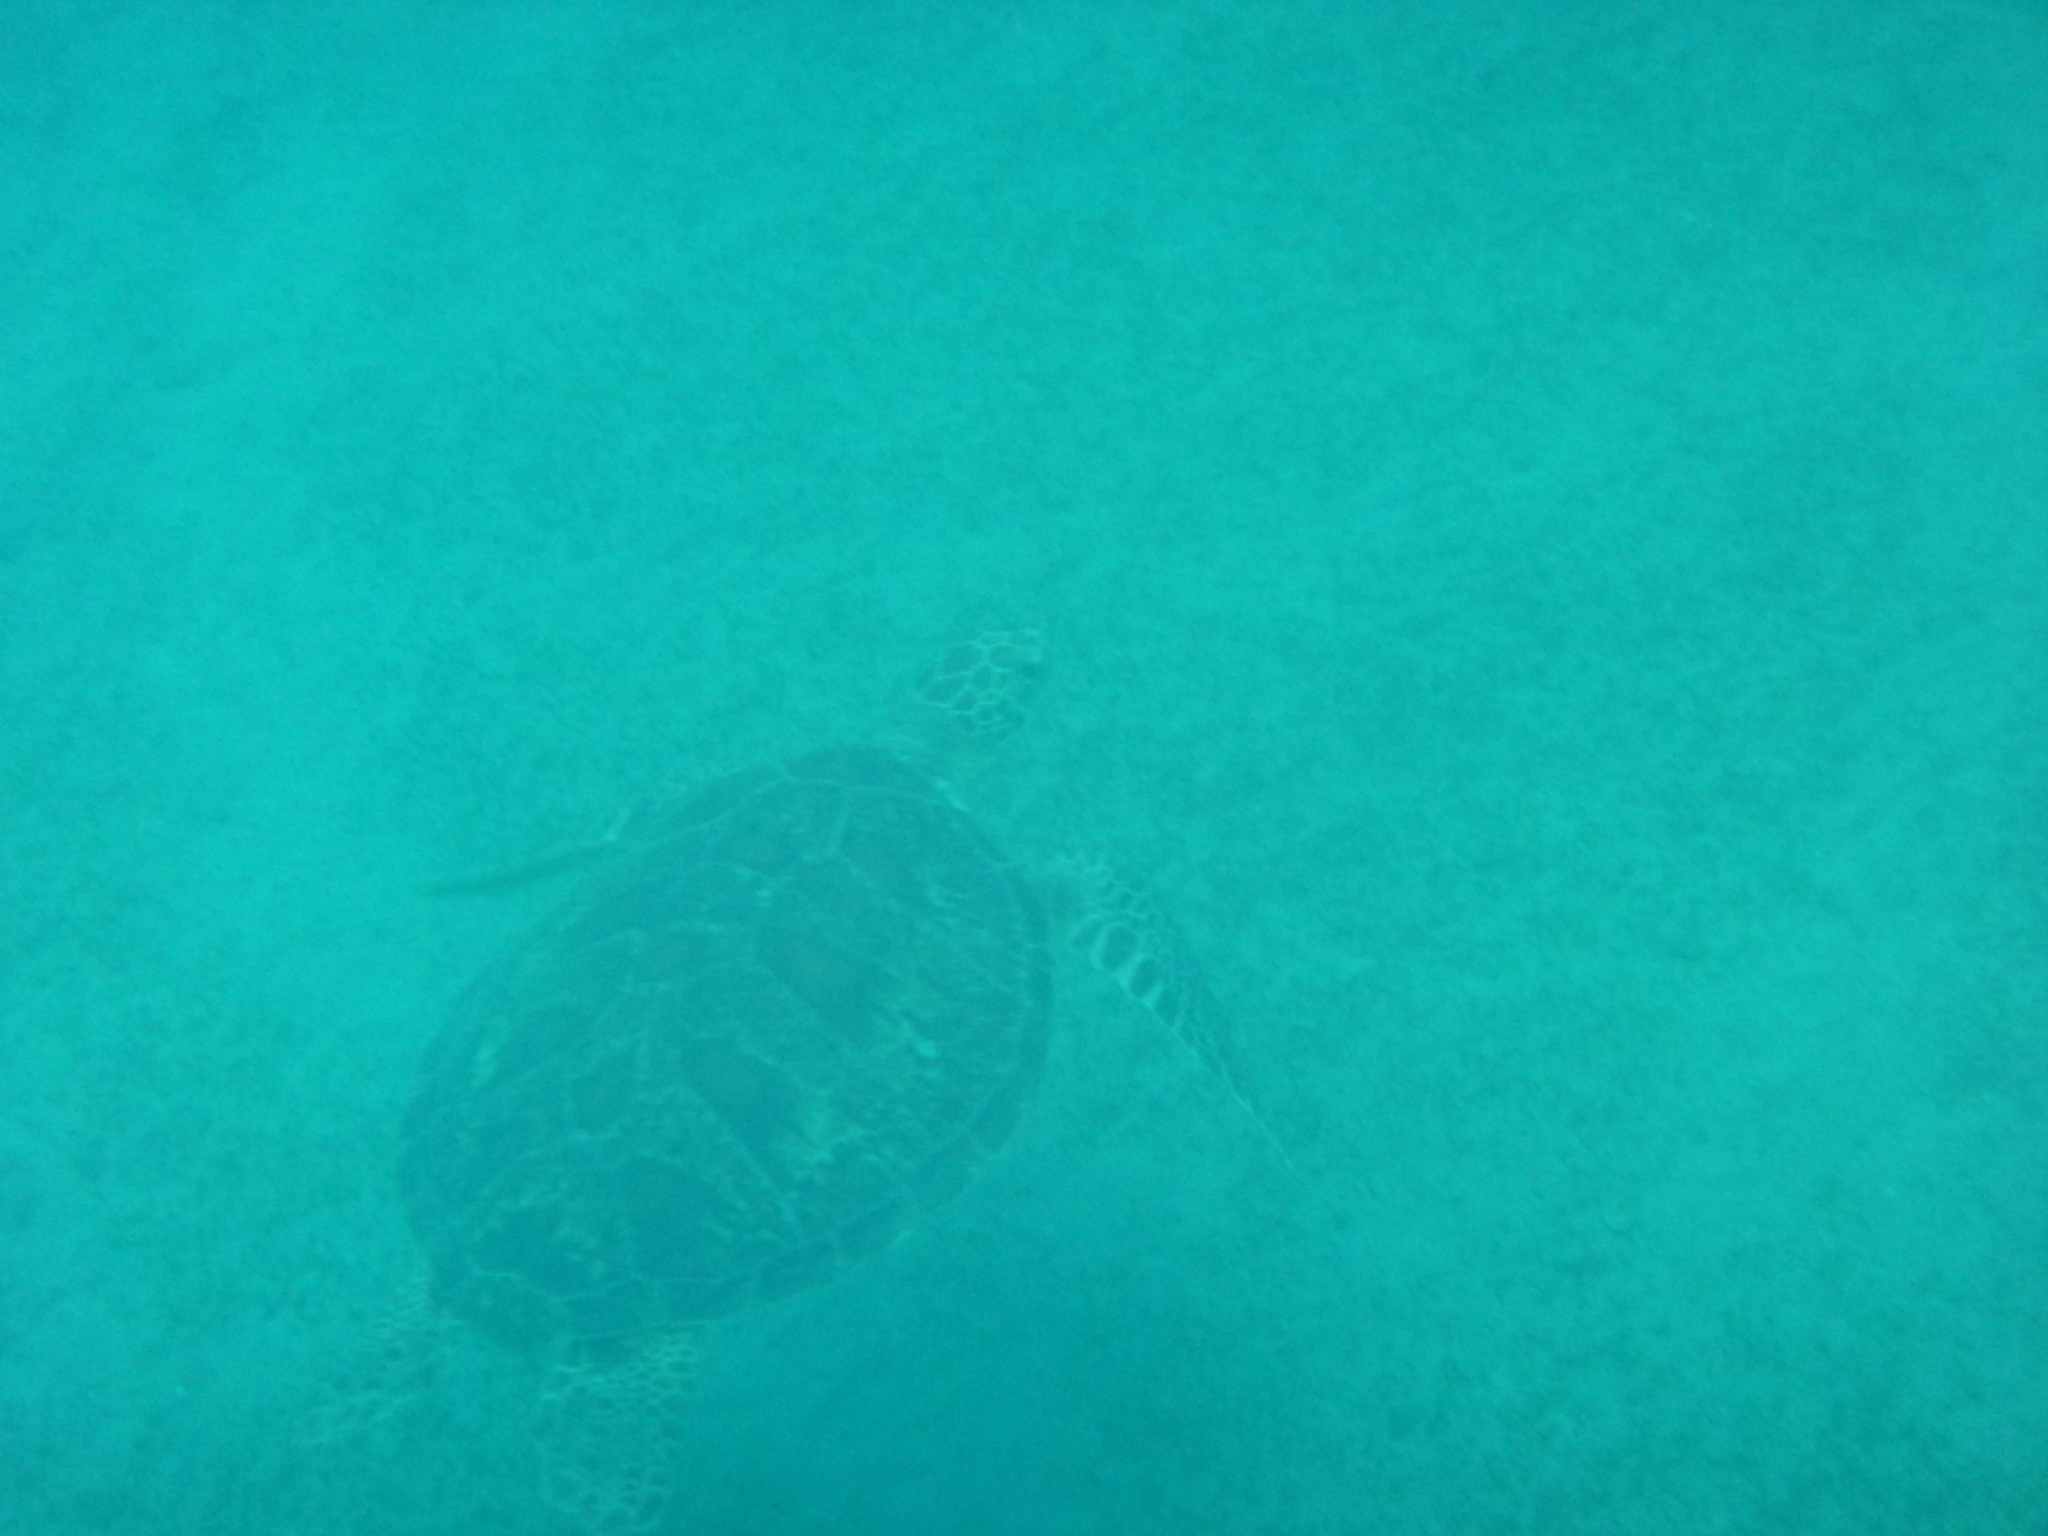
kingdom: Animalia
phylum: Chordata
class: Testudines
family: Cheloniidae
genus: Chelonia
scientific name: Chelonia mydas
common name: Green turtle
